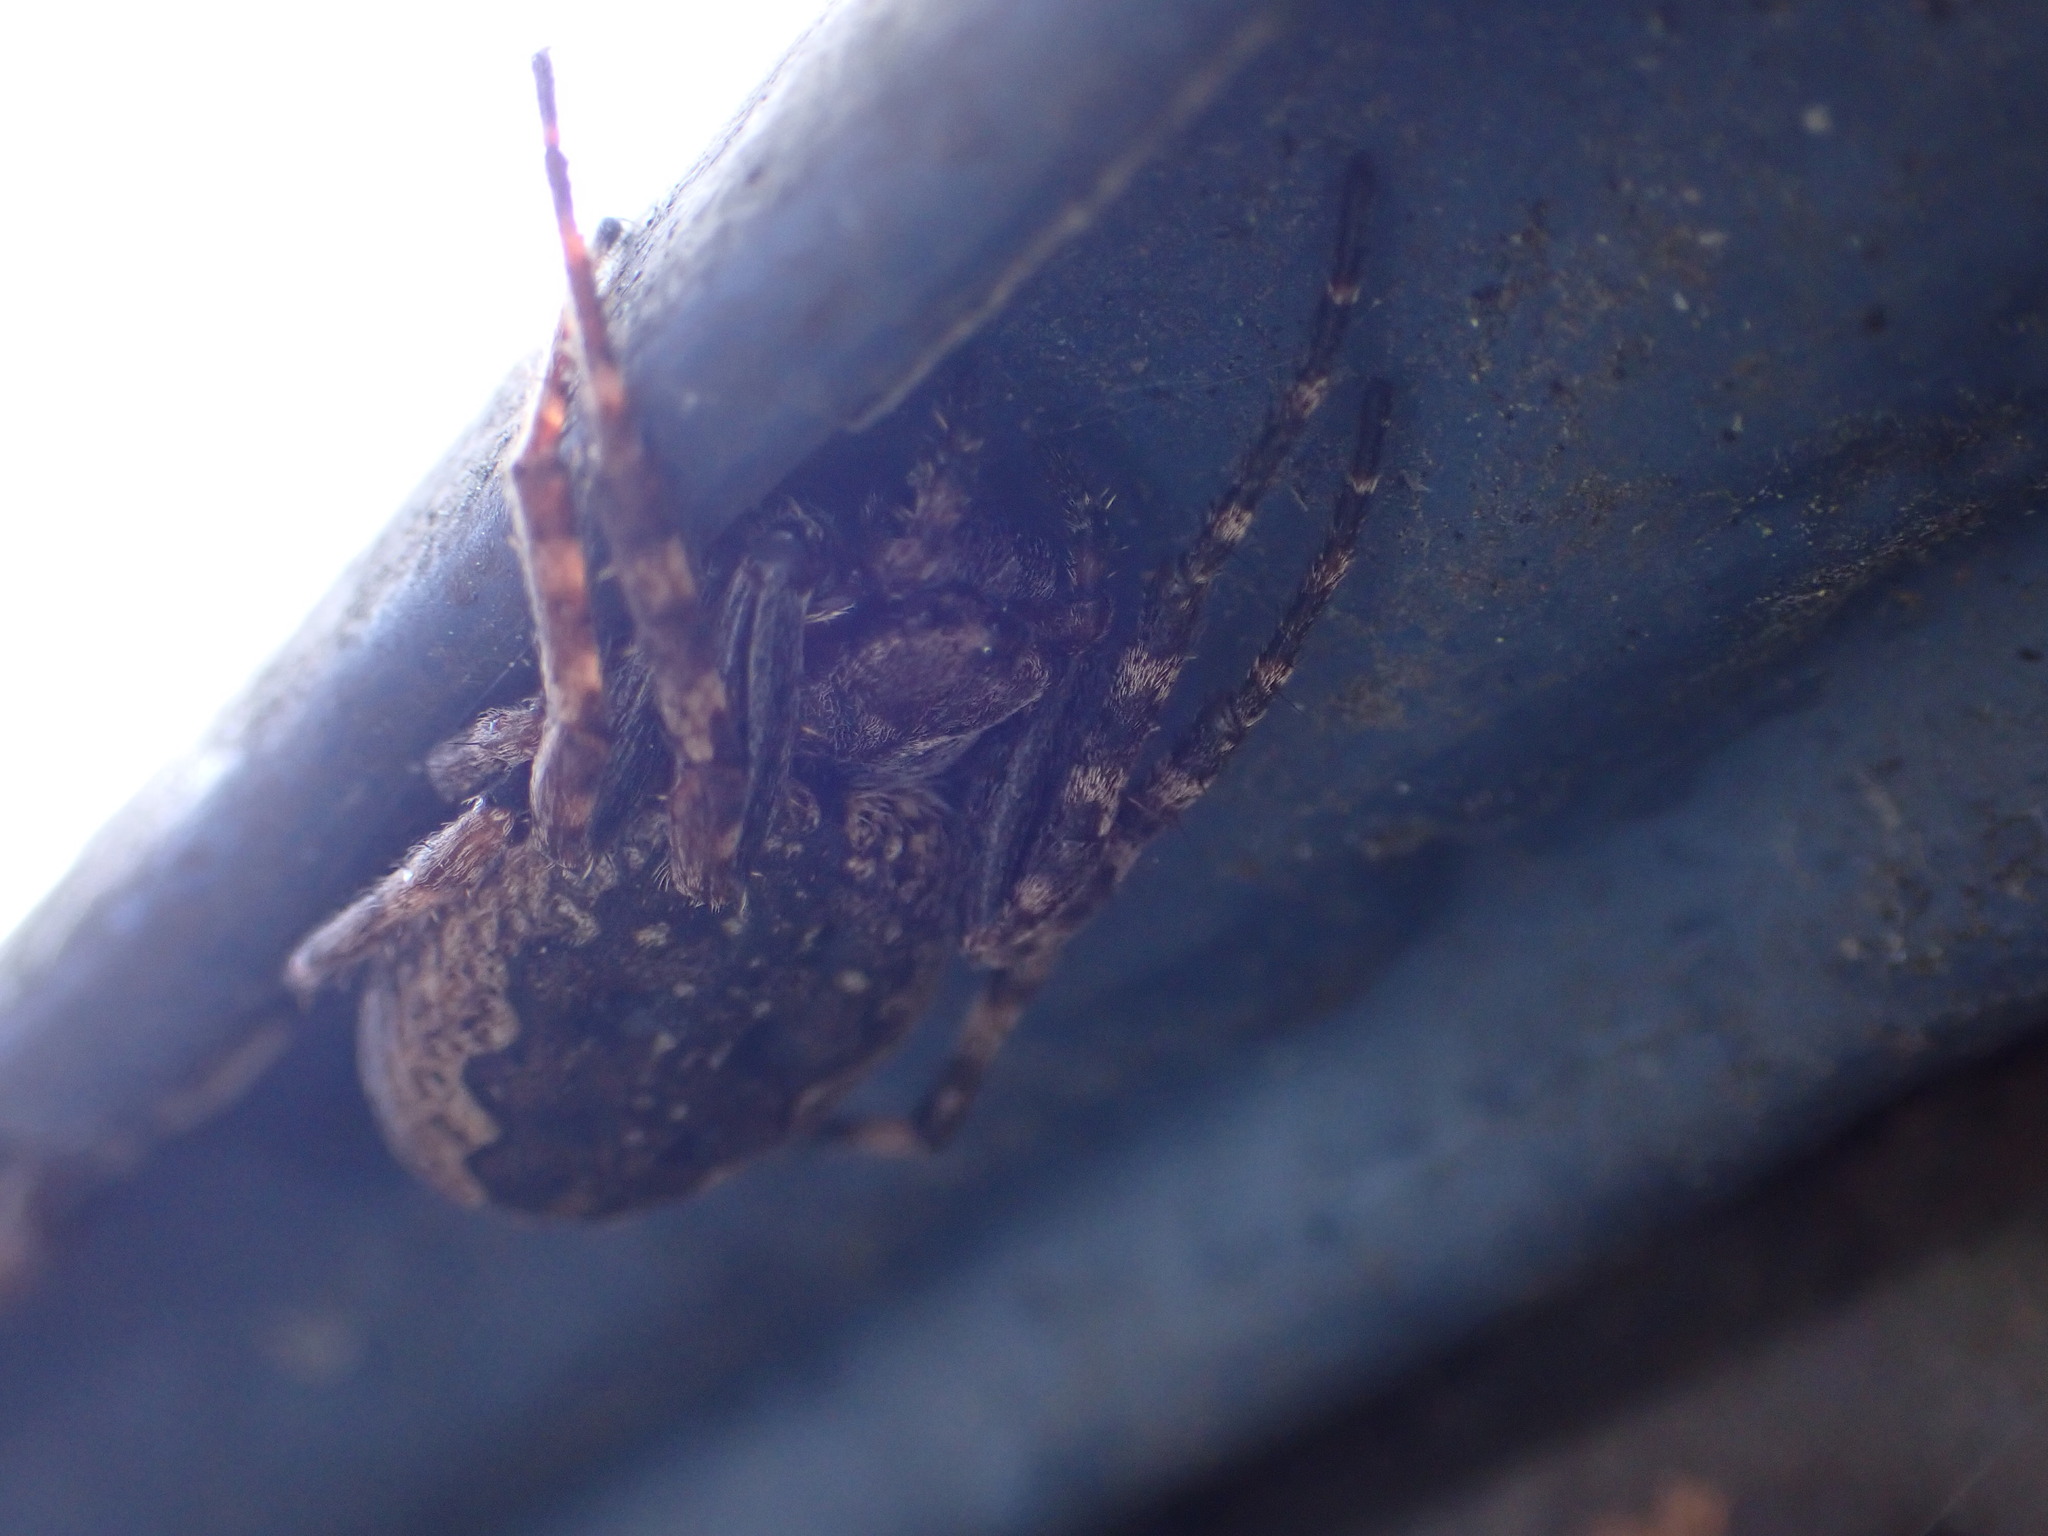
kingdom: Animalia
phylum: Arthropoda
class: Arachnida
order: Araneae
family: Araneidae
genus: Nuctenea
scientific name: Nuctenea umbratica
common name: Toad spider
